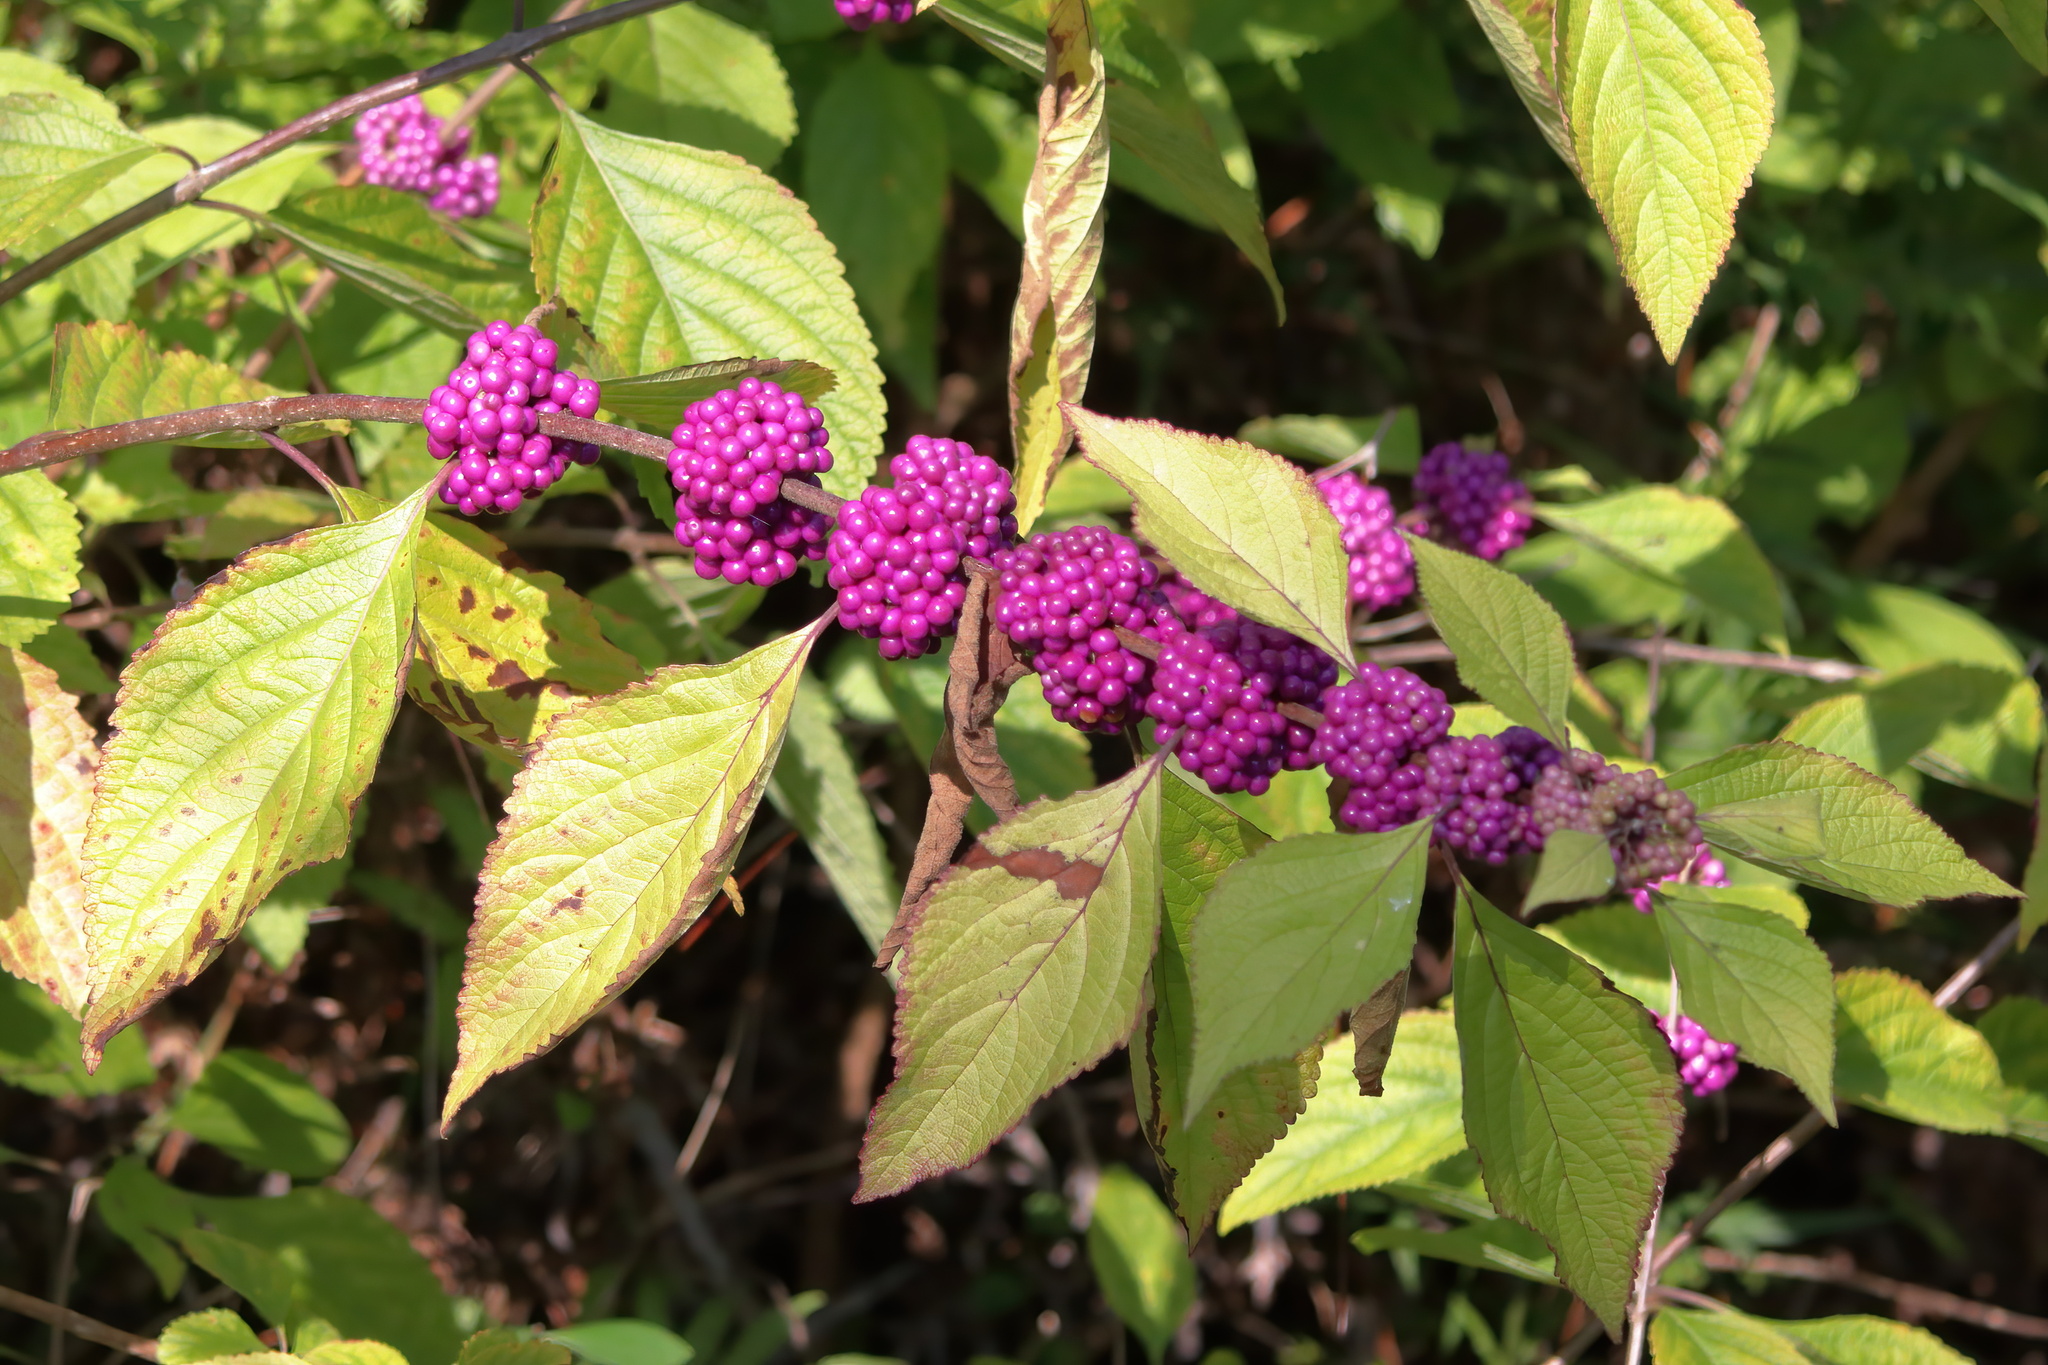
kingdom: Plantae
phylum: Tracheophyta
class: Magnoliopsida
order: Lamiales
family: Lamiaceae
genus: Callicarpa
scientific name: Callicarpa americana
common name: American beautyberry
